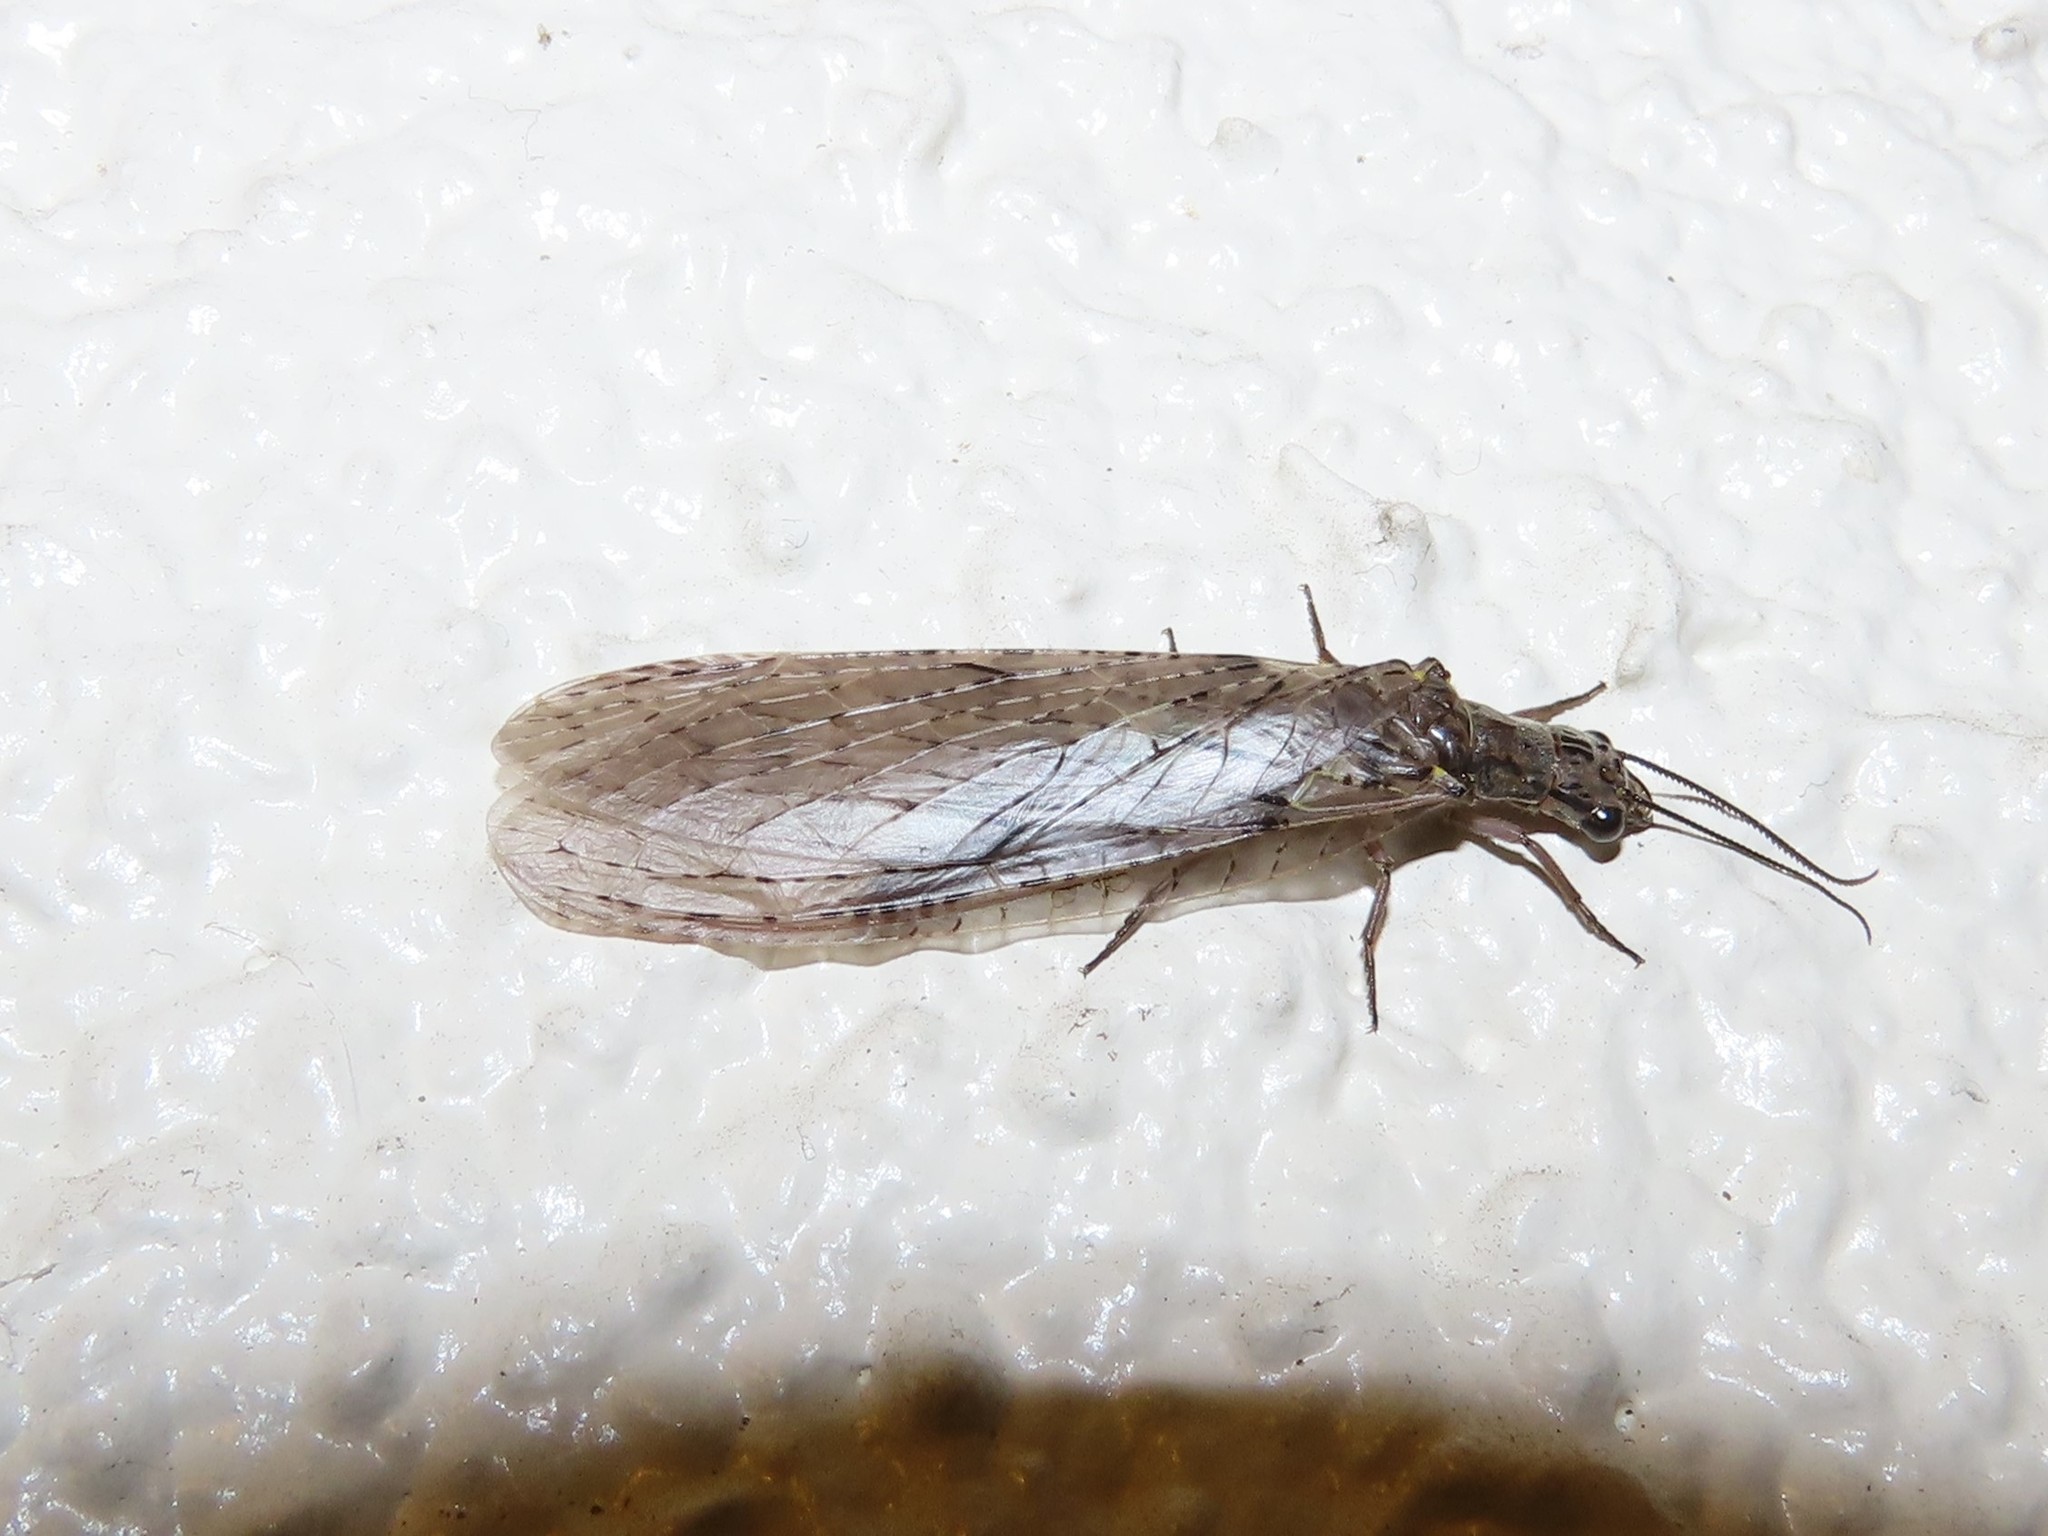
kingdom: Animalia
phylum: Arthropoda
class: Insecta
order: Megaloptera
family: Corydalidae
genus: Chauliodes
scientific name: Chauliodes rastricornis
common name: Spring fishfly
